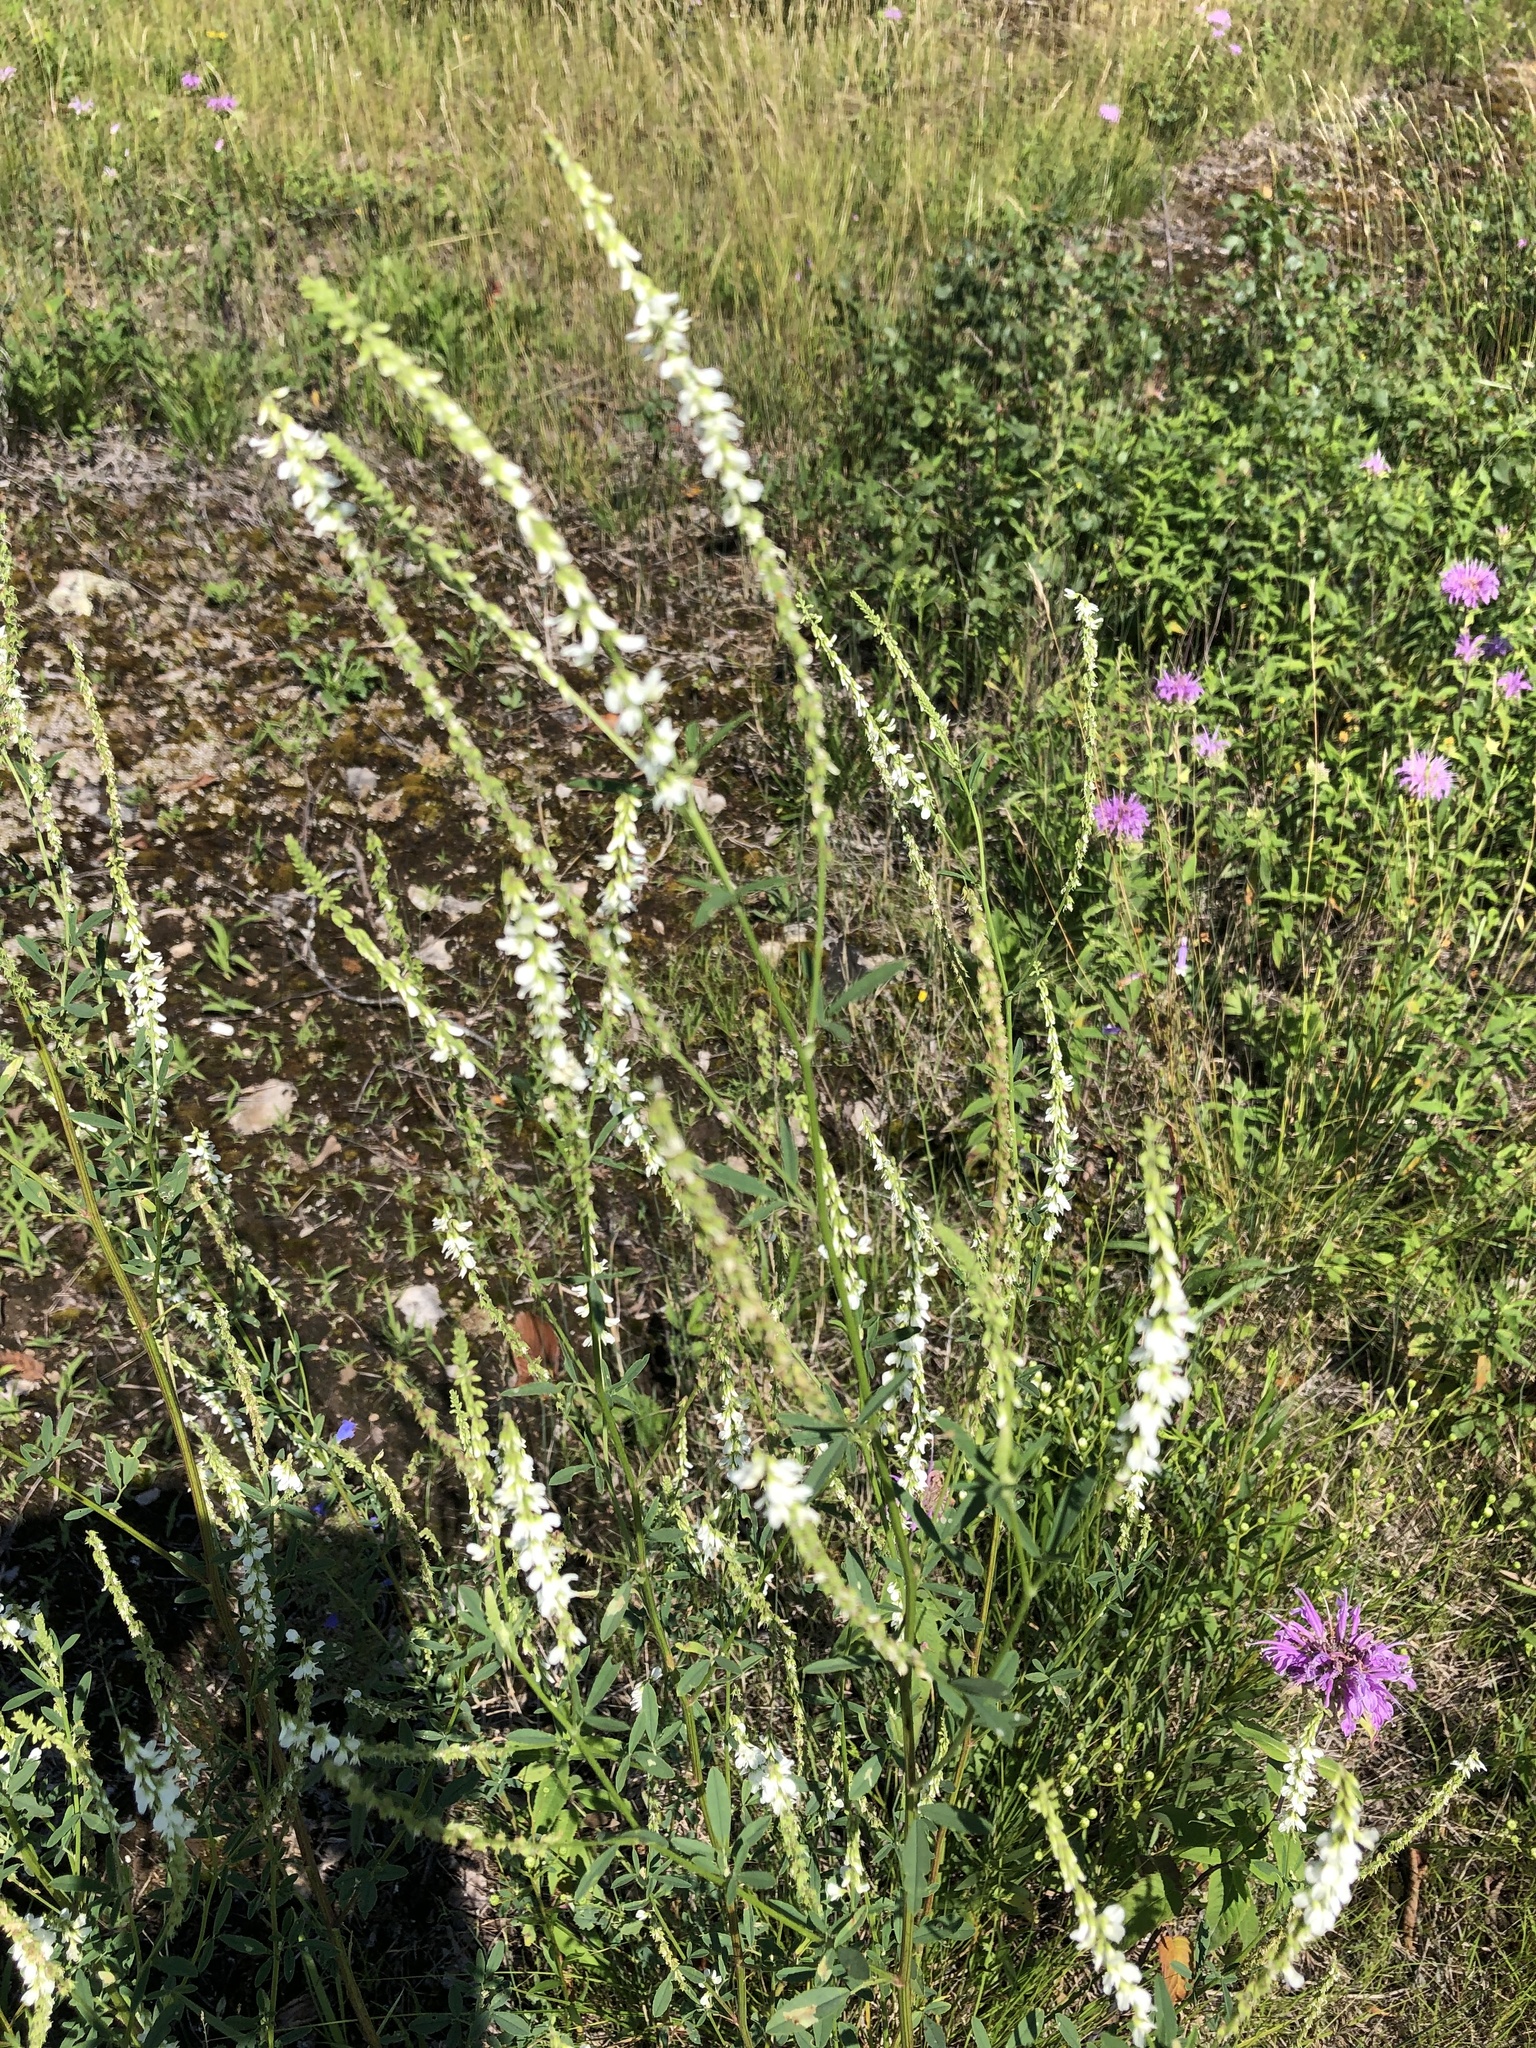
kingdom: Plantae
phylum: Tracheophyta
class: Magnoliopsida
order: Fabales
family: Fabaceae
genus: Melilotus
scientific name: Melilotus albus
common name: White melilot
